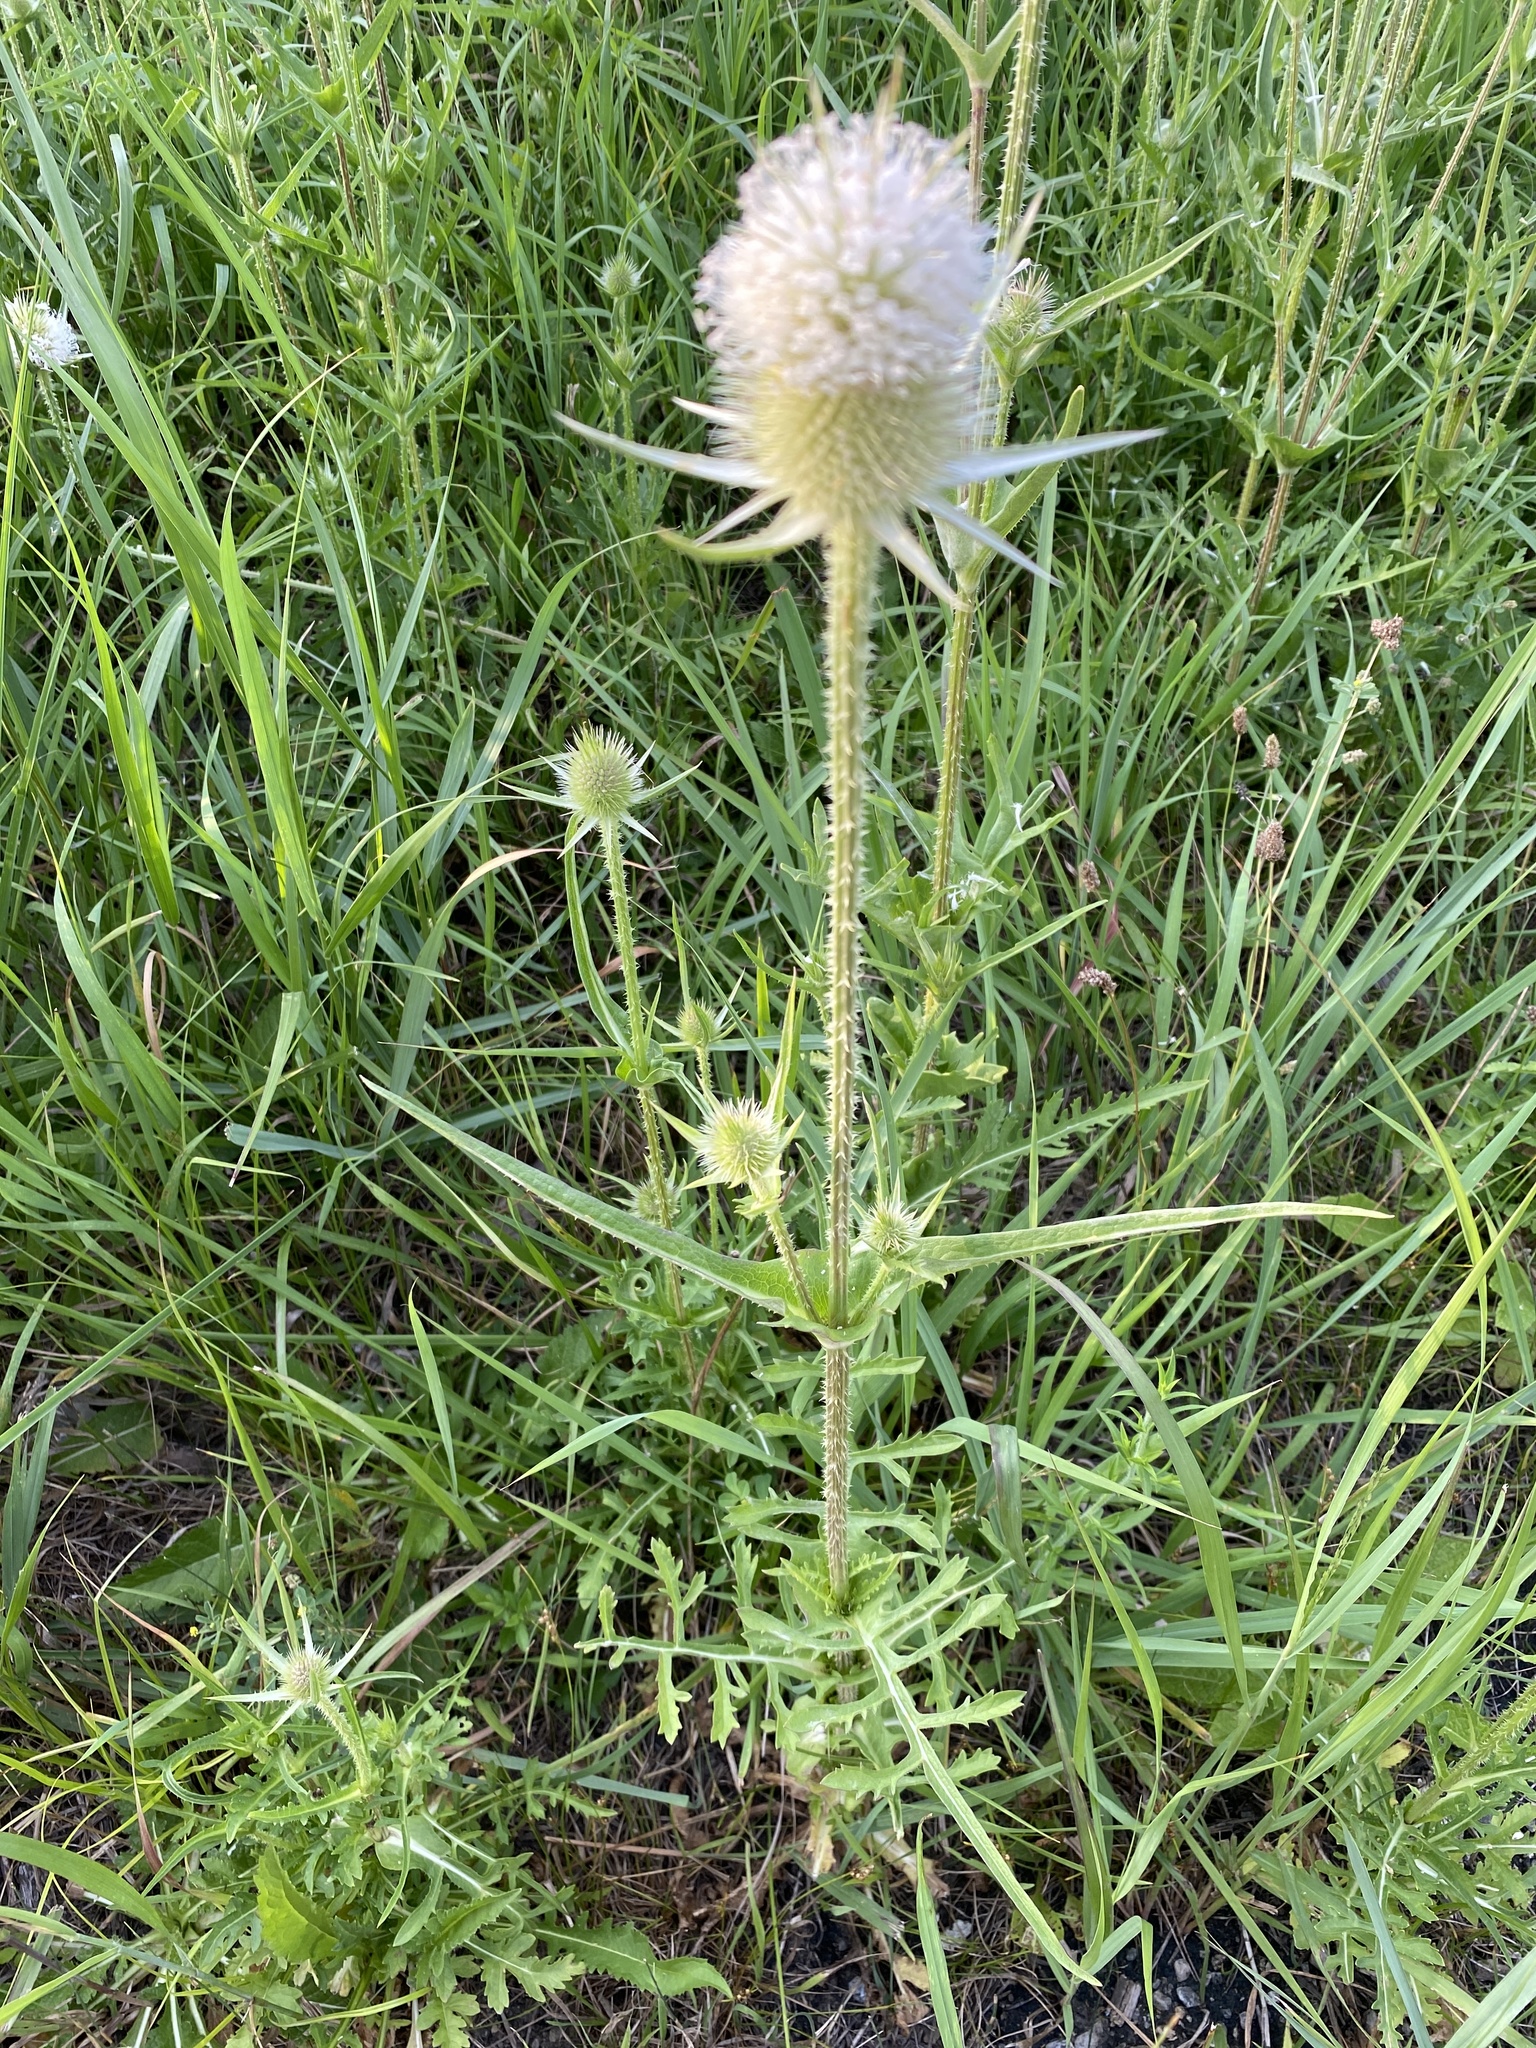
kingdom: Plantae
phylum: Tracheophyta
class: Magnoliopsida
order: Dipsacales
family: Caprifoliaceae
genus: Dipsacus
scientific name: Dipsacus laciniatus
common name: Cut-leaved teasel
